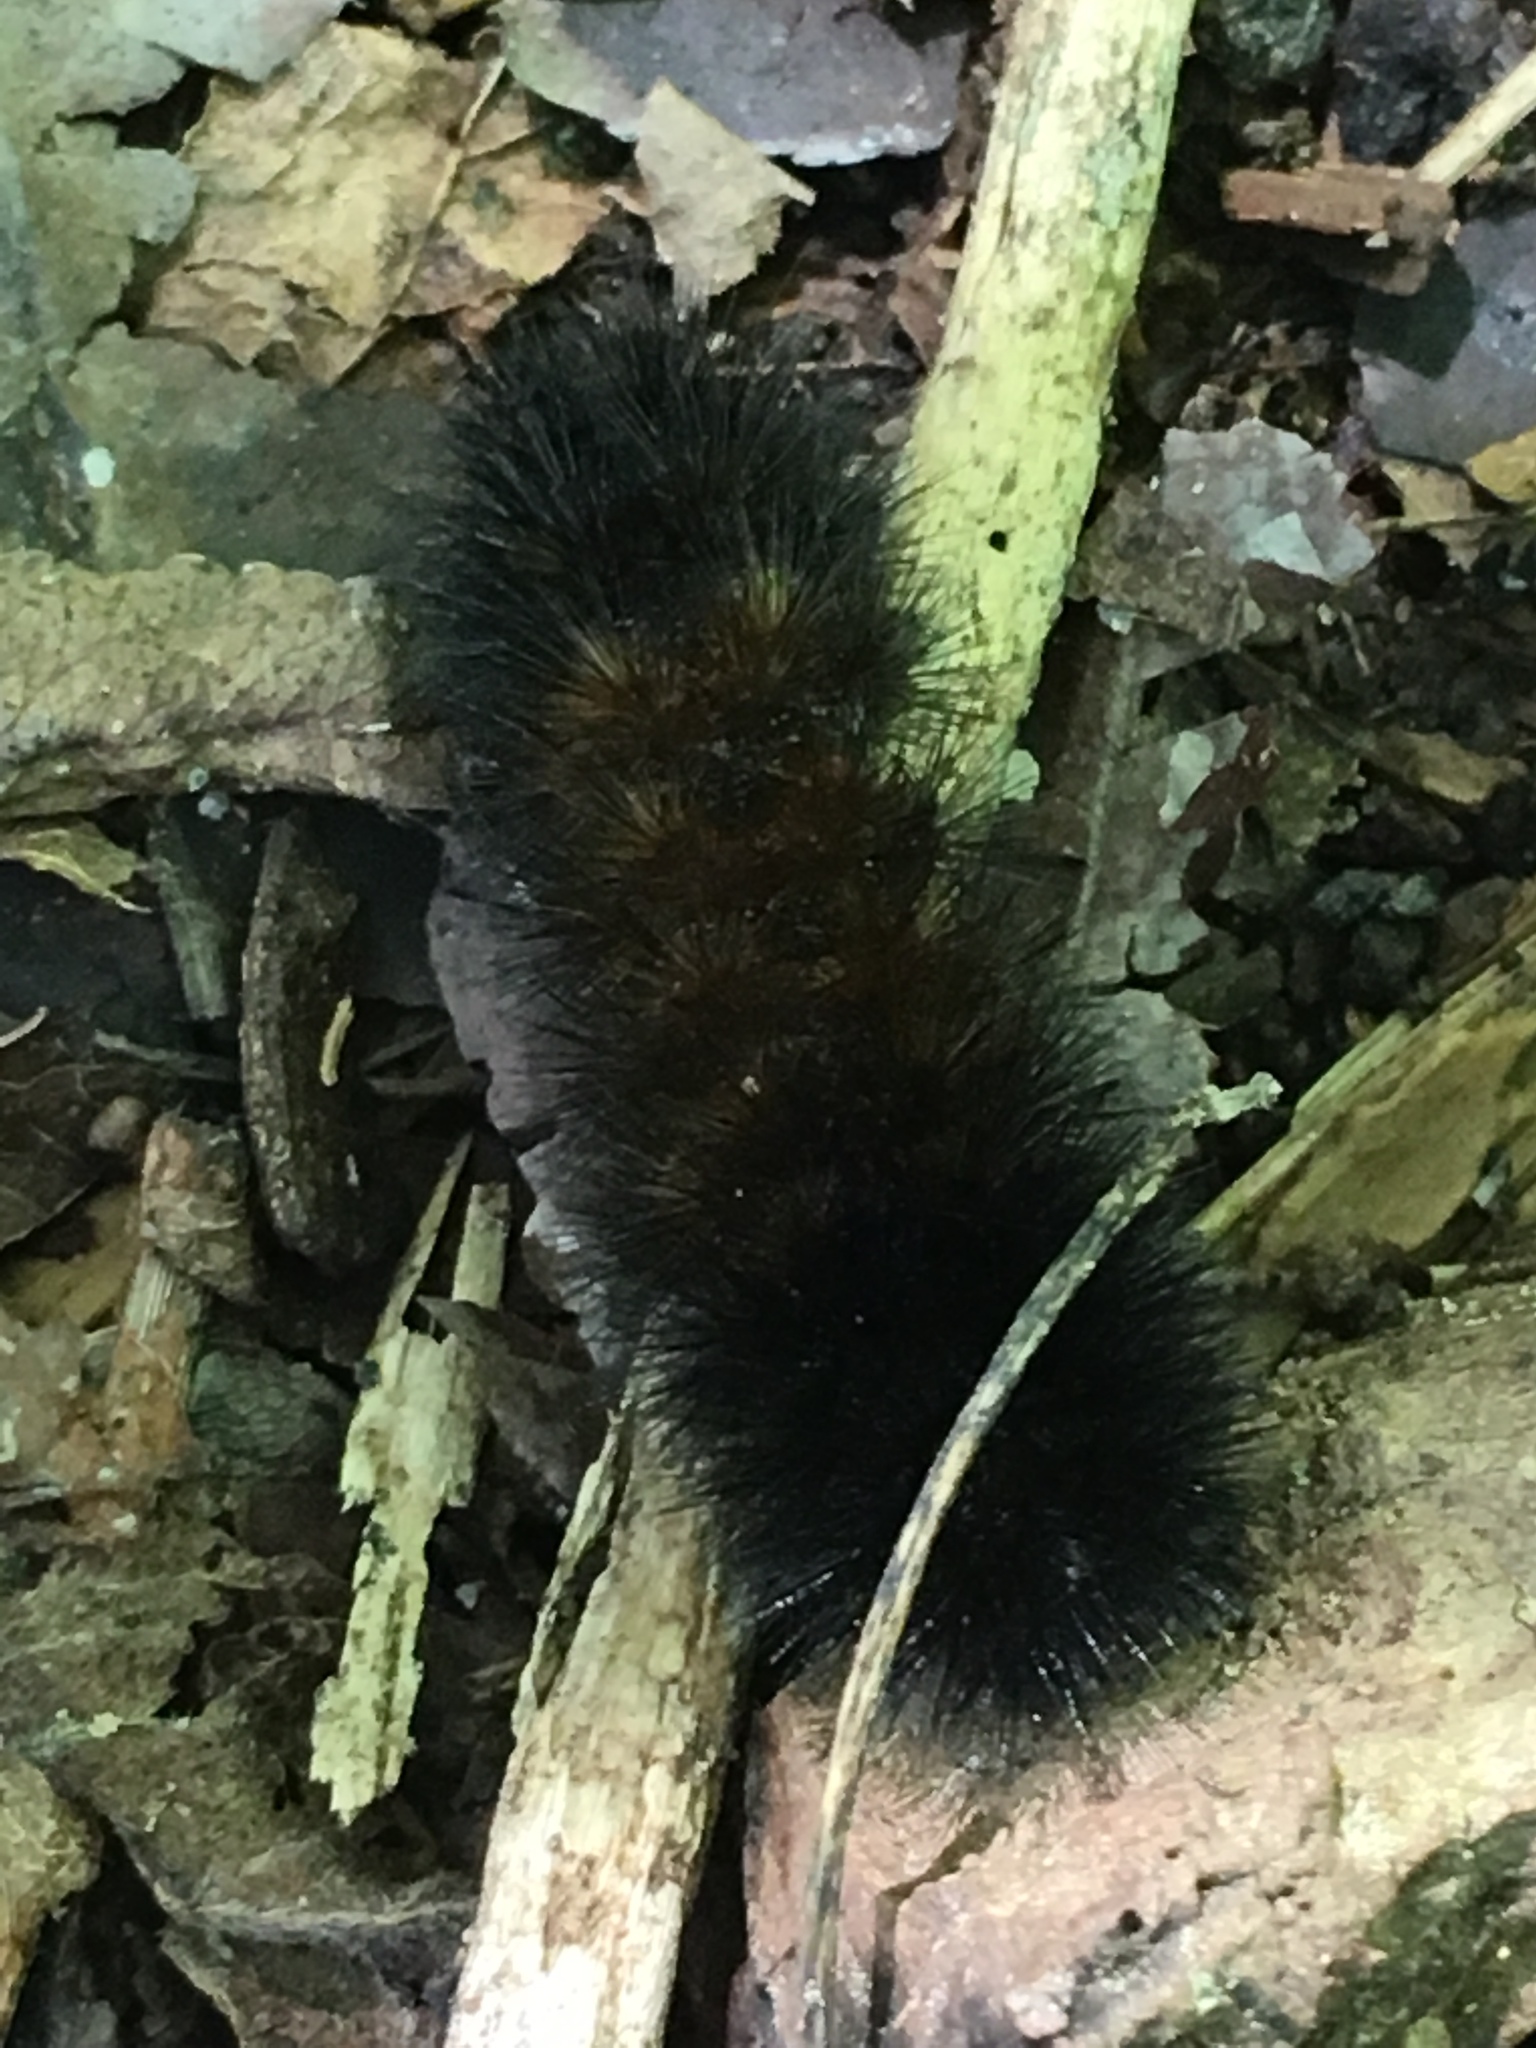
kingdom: Animalia
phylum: Arthropoda
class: Insecta
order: Lepidoptera
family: Erebidae
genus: Pyrrharctia
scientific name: Pyrrharctia isabella
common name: Isabella tiger moth
